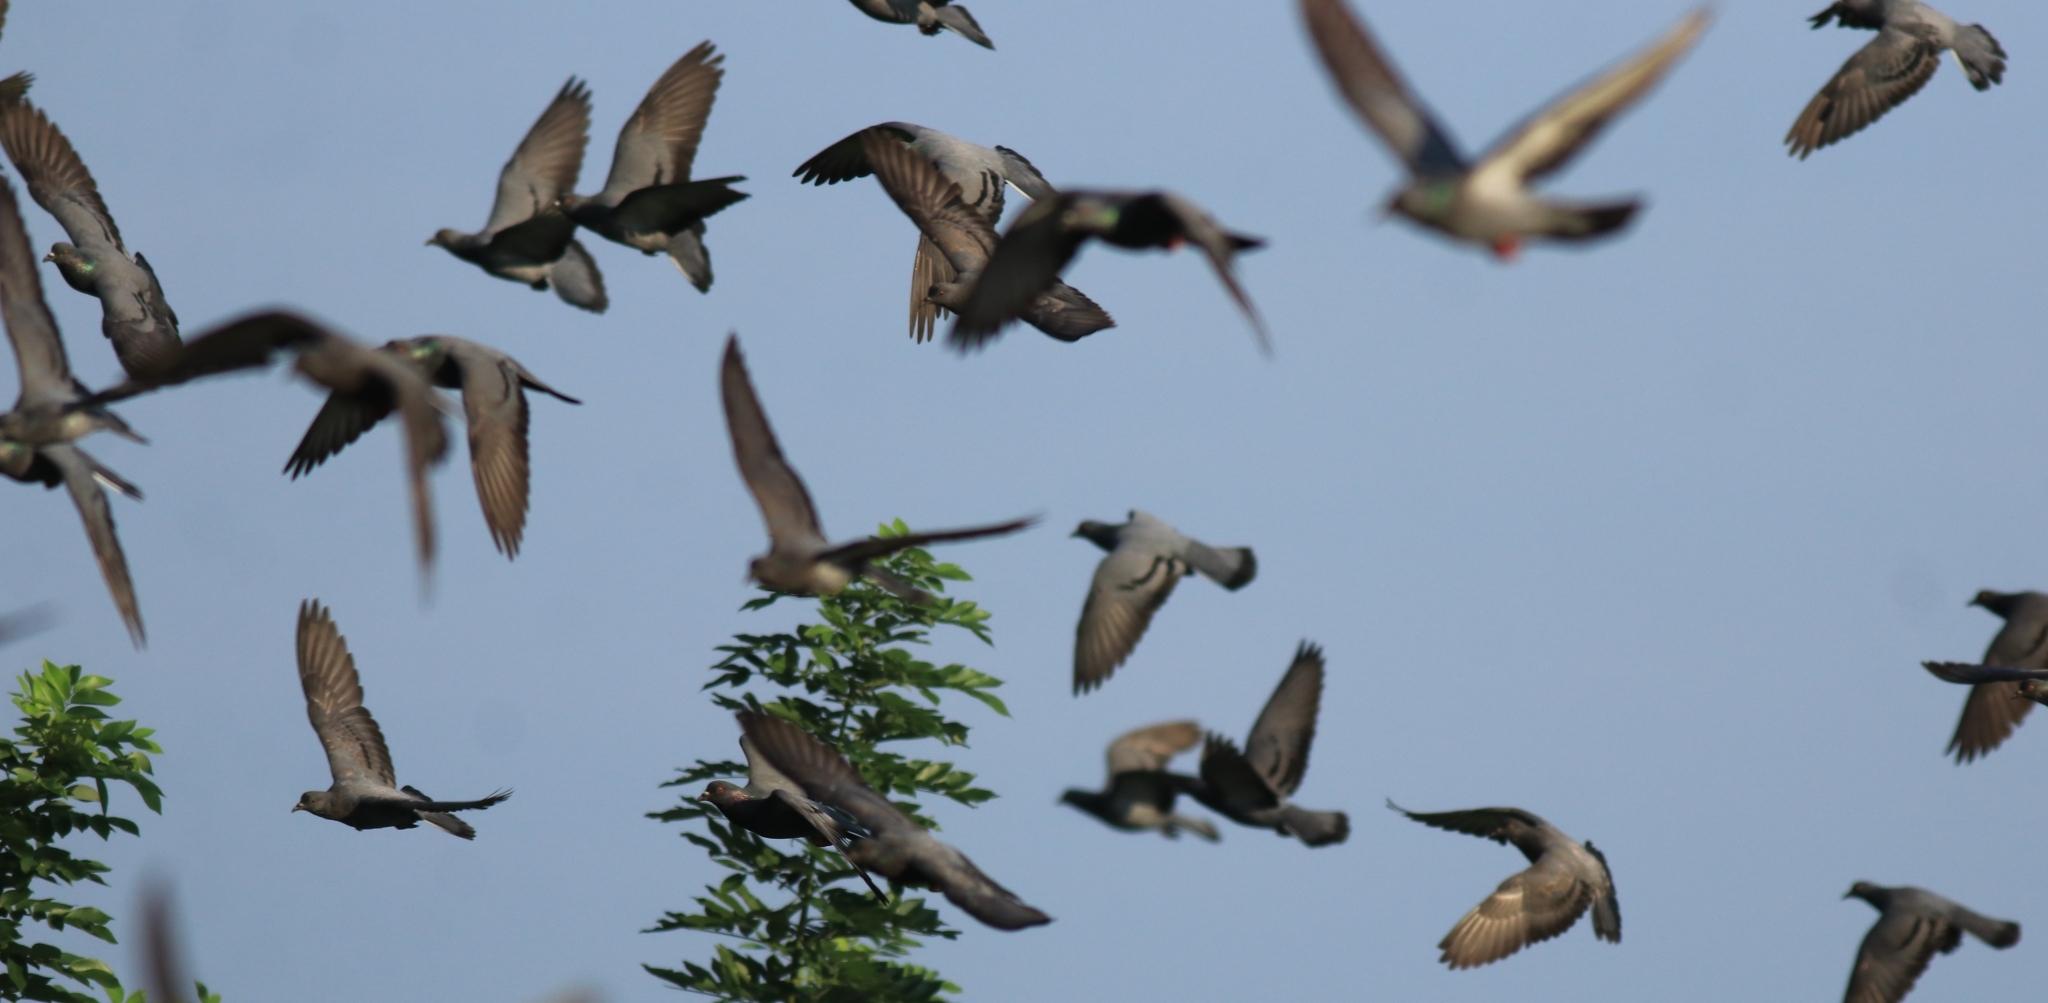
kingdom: Animalia
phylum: Chordata
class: Aves
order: Columbiformes
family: Columbidae
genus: Columba
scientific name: Columba livia
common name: Rock pigeon
